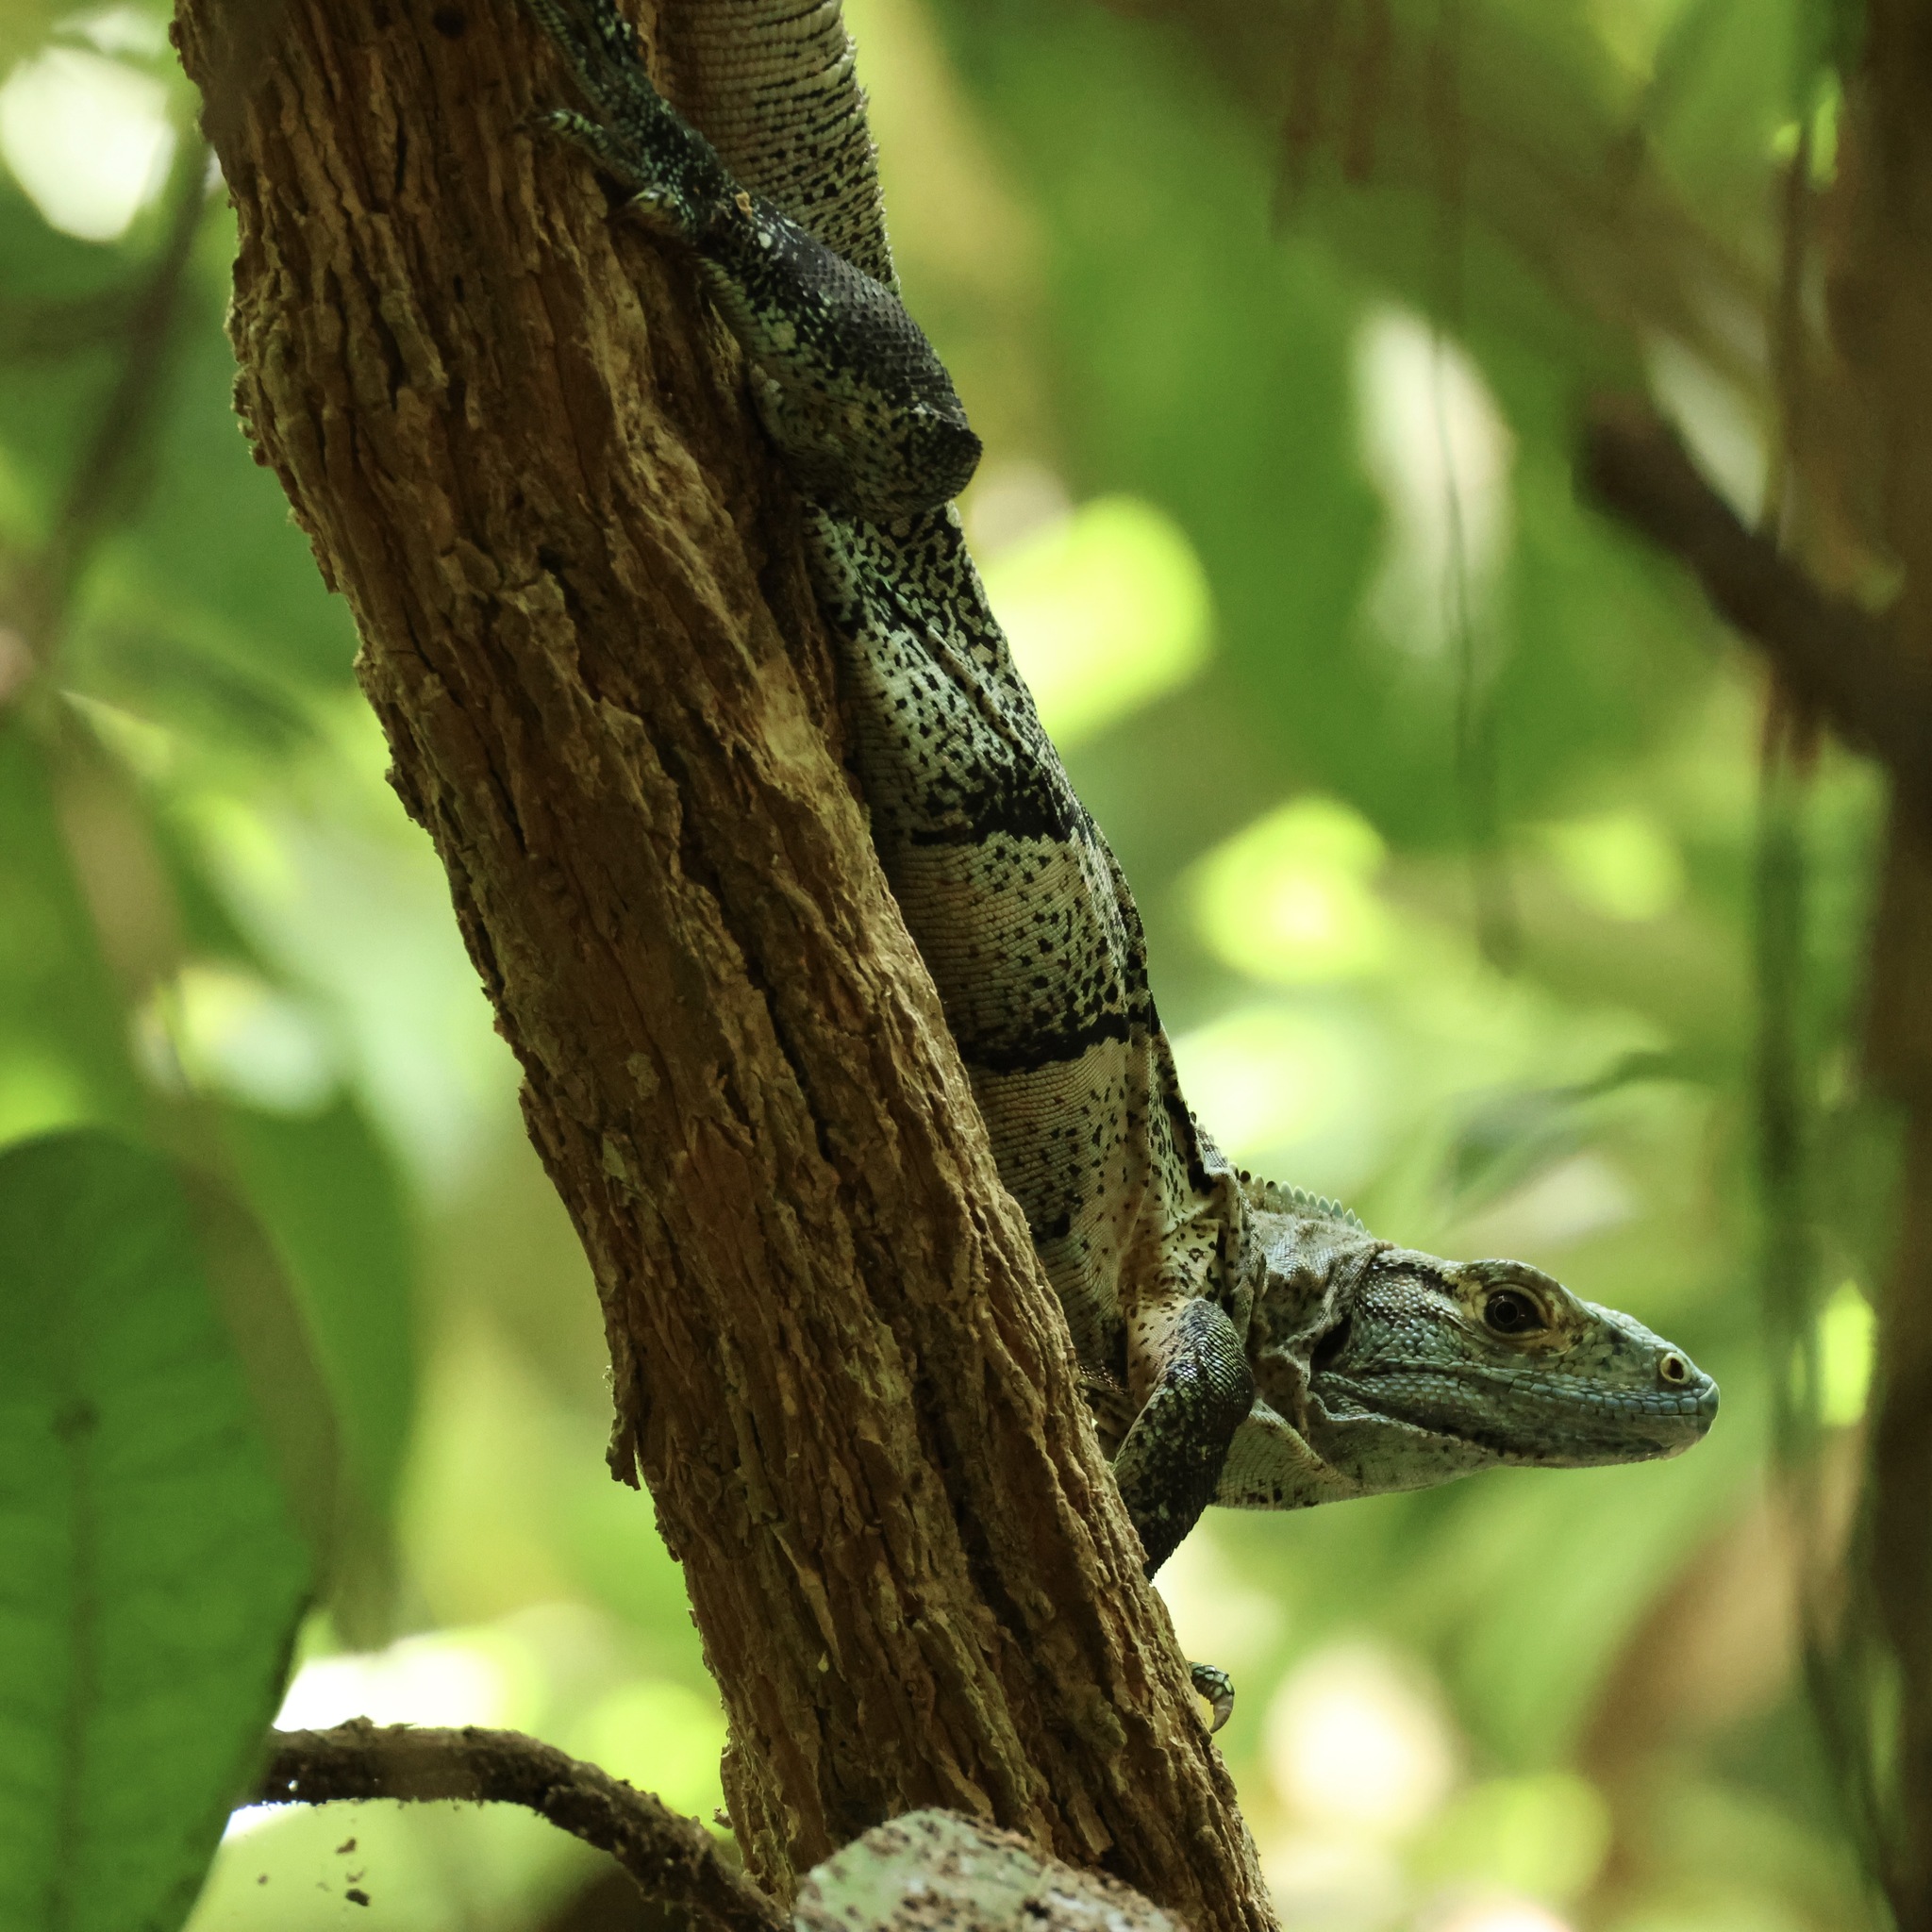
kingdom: Animalia
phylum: Chordata
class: Squamata
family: Iguanidae
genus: Ctenosaura
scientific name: Ctenosaura similis
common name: Black spiny-tailed iguana
